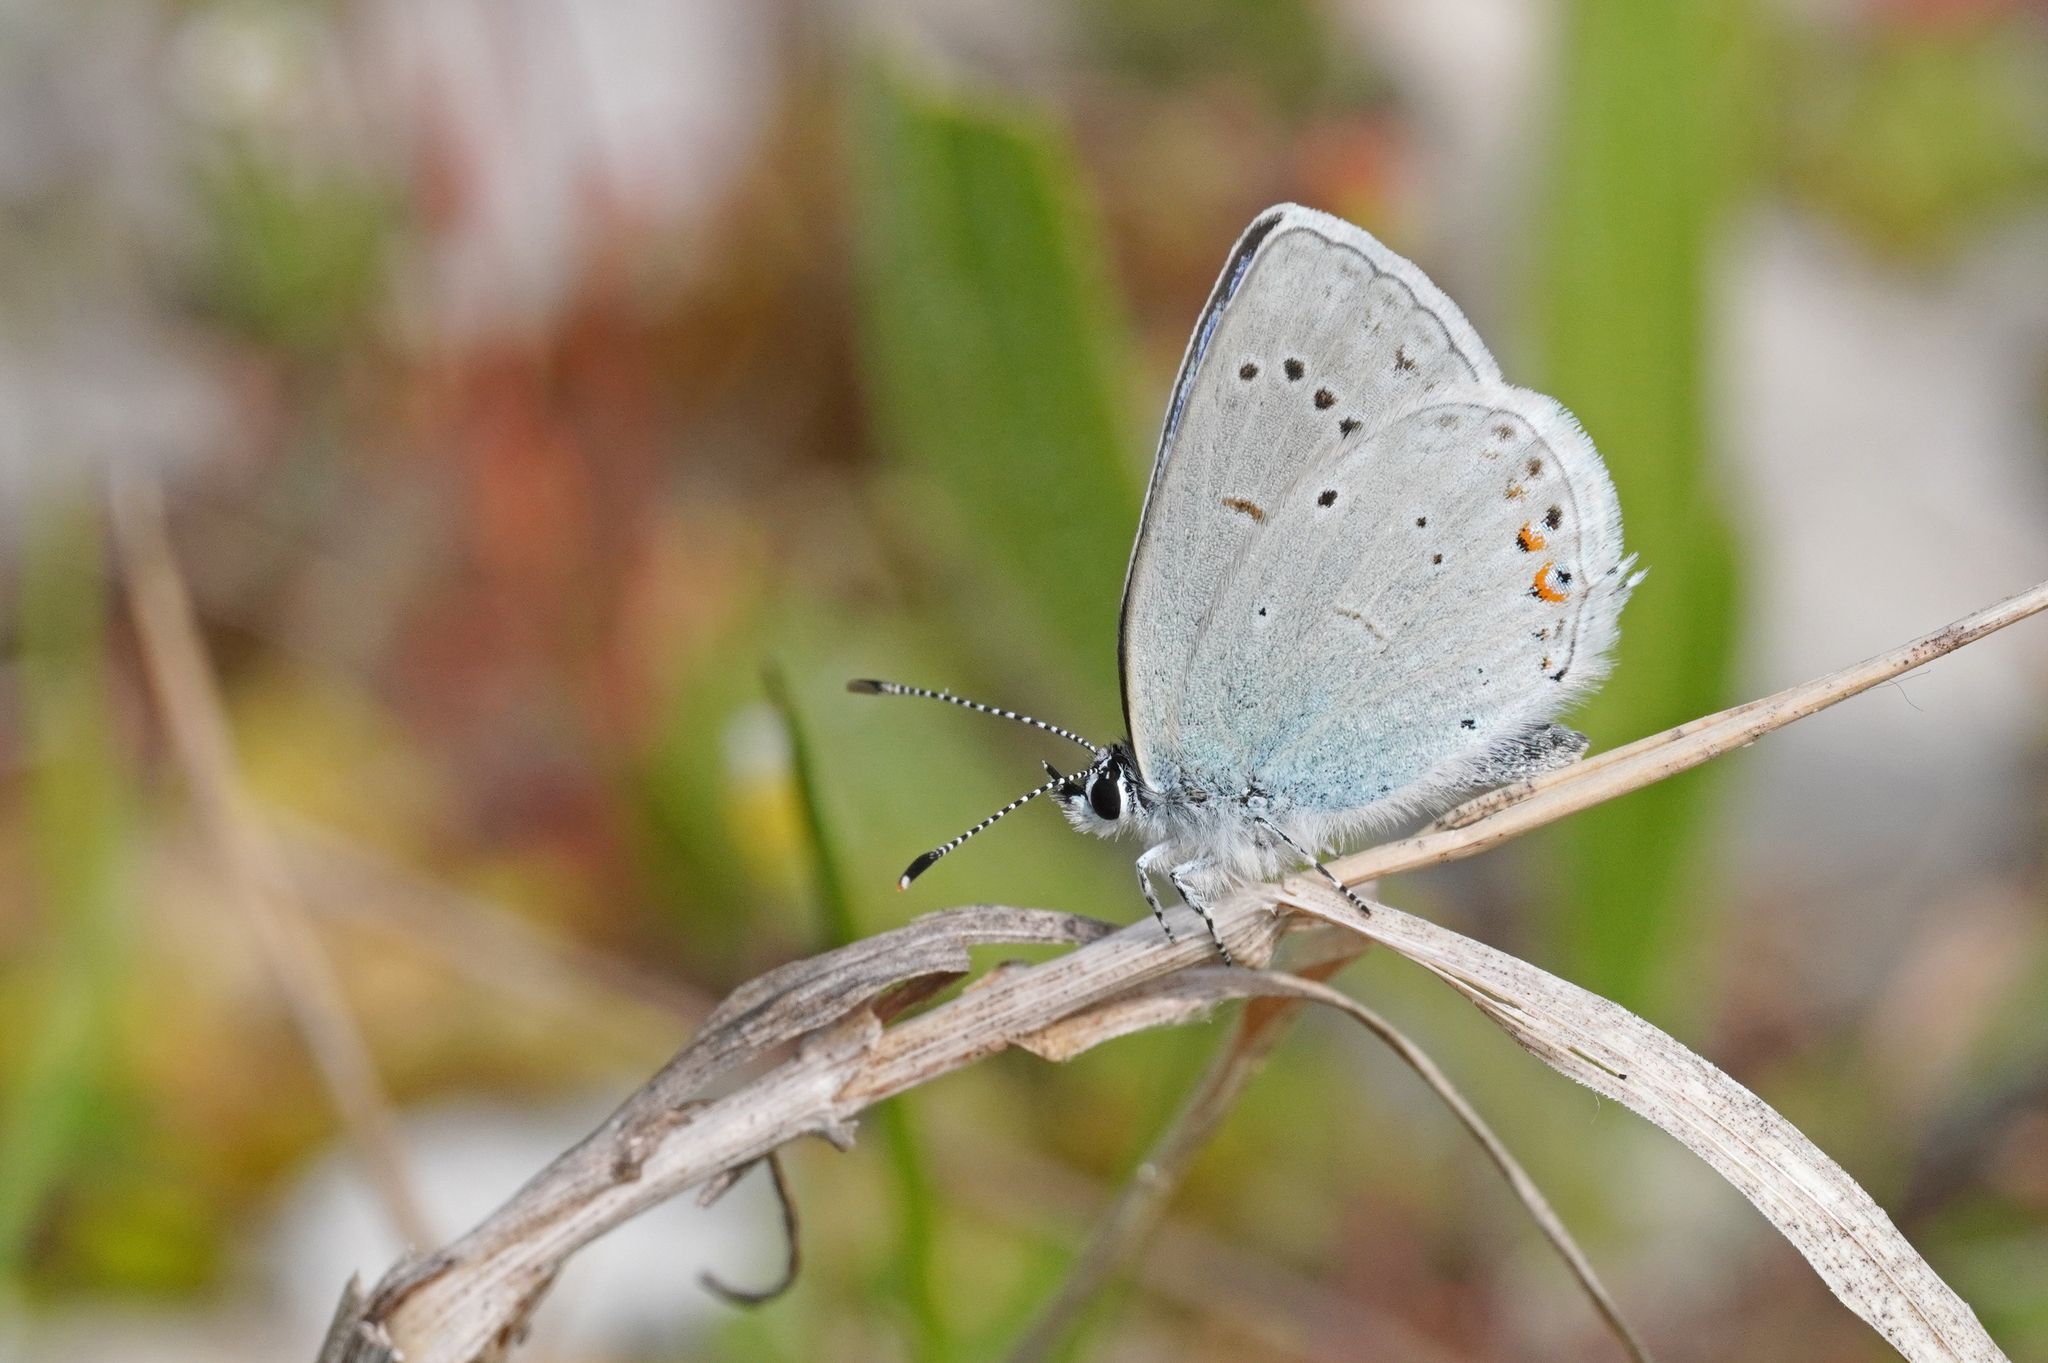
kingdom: Animalia
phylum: Arthropoda
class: Insecta
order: Lepidoptera
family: Lycaenidae
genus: Elkalyce
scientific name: Elkalyce argiades
